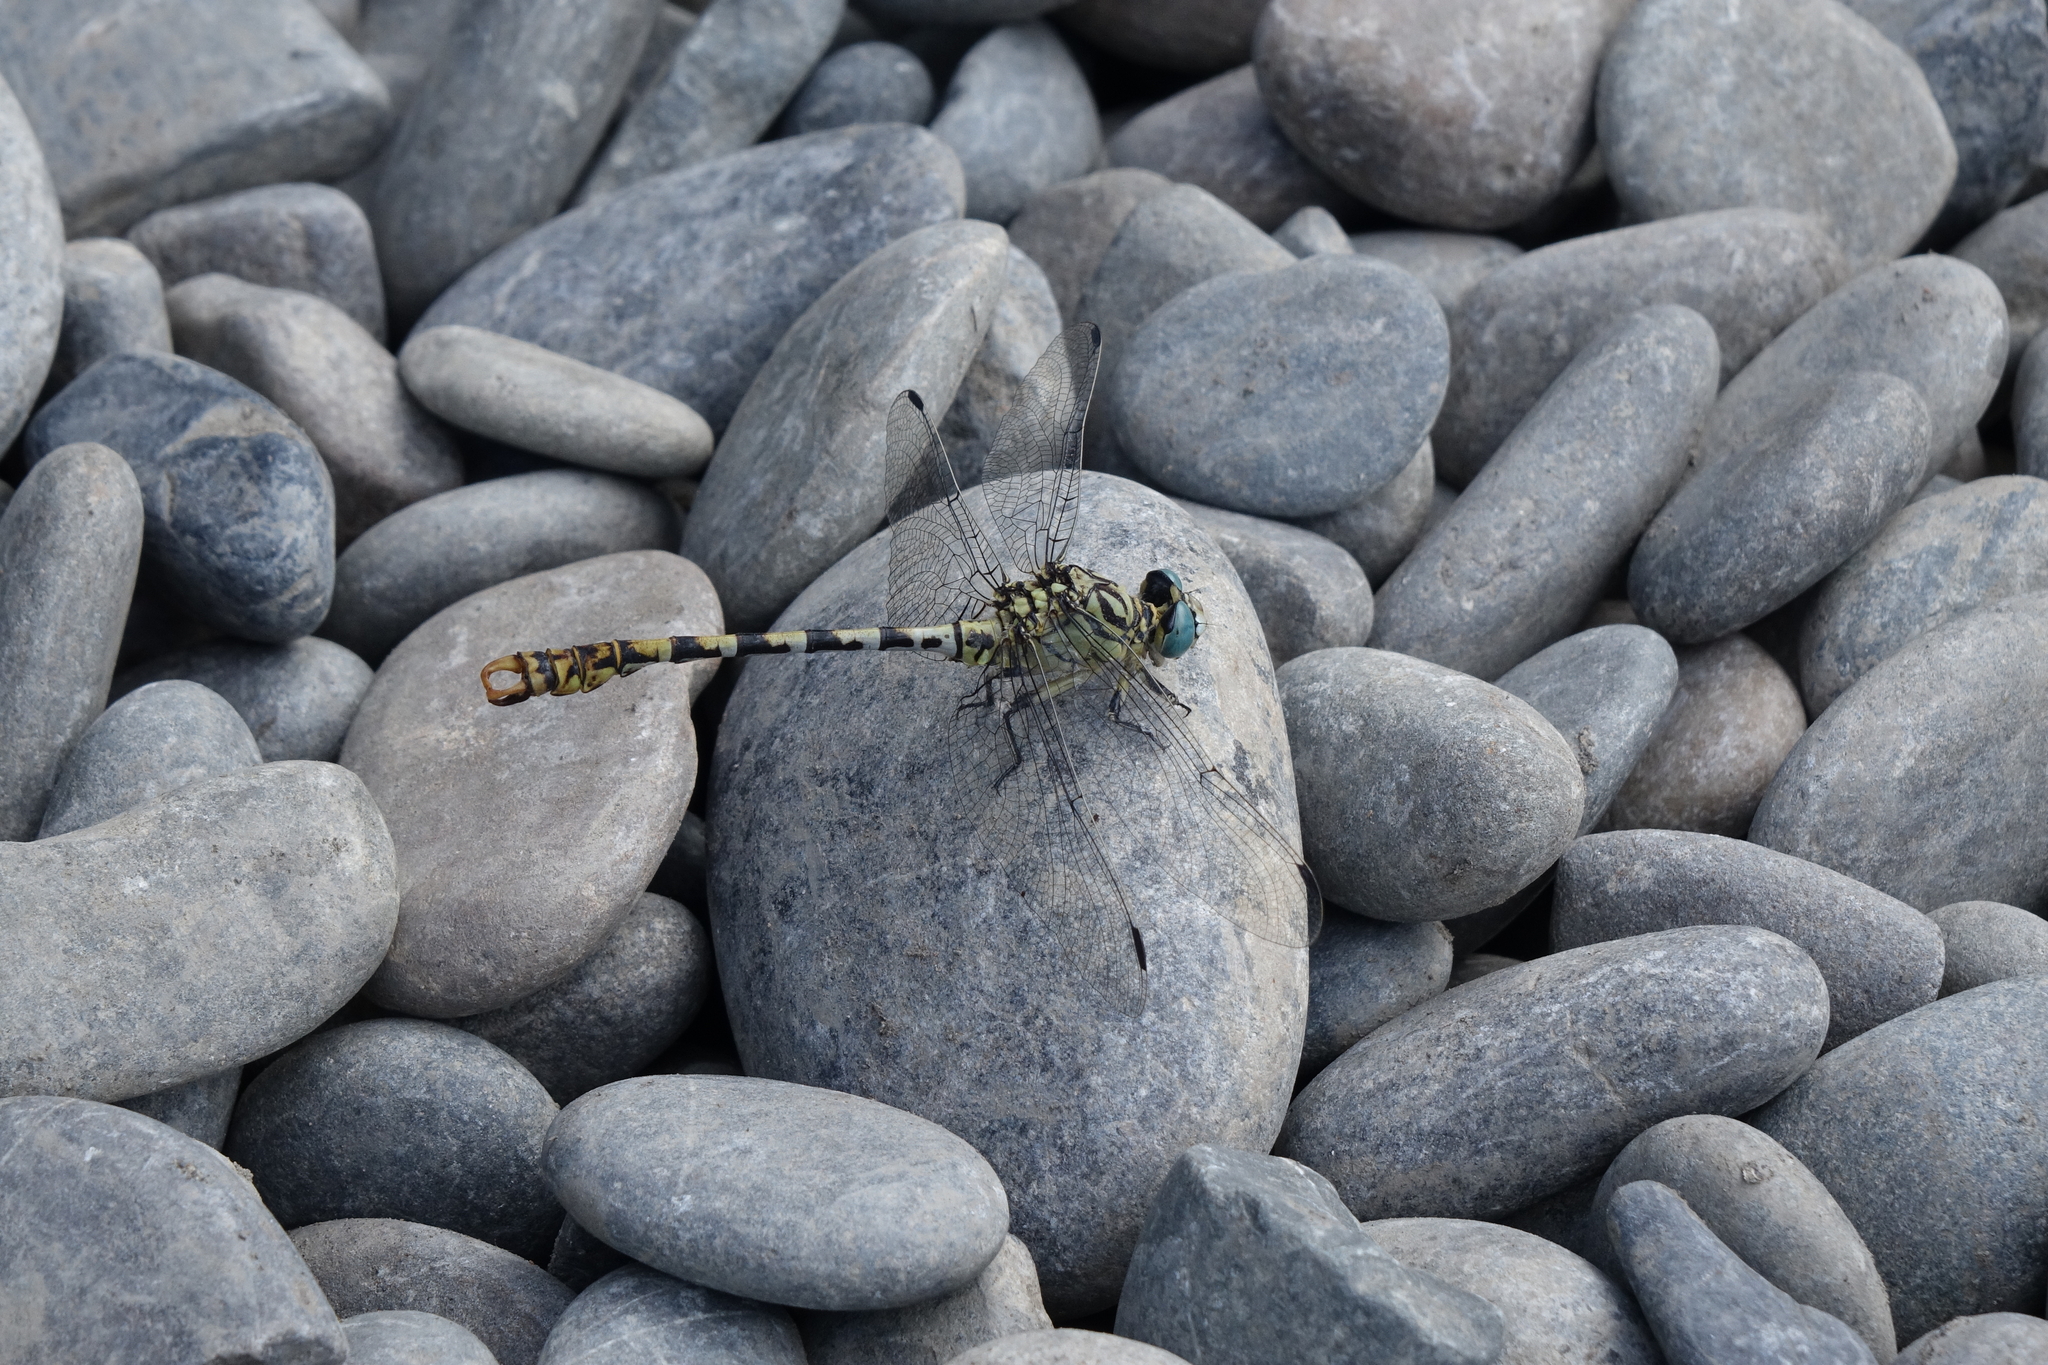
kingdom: Animalia
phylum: Arthropoda
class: Insecta
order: Odonata
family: Gomphidae
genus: Onychogomphus
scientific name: Onychogomphus forcipatus
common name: Small pincertail
